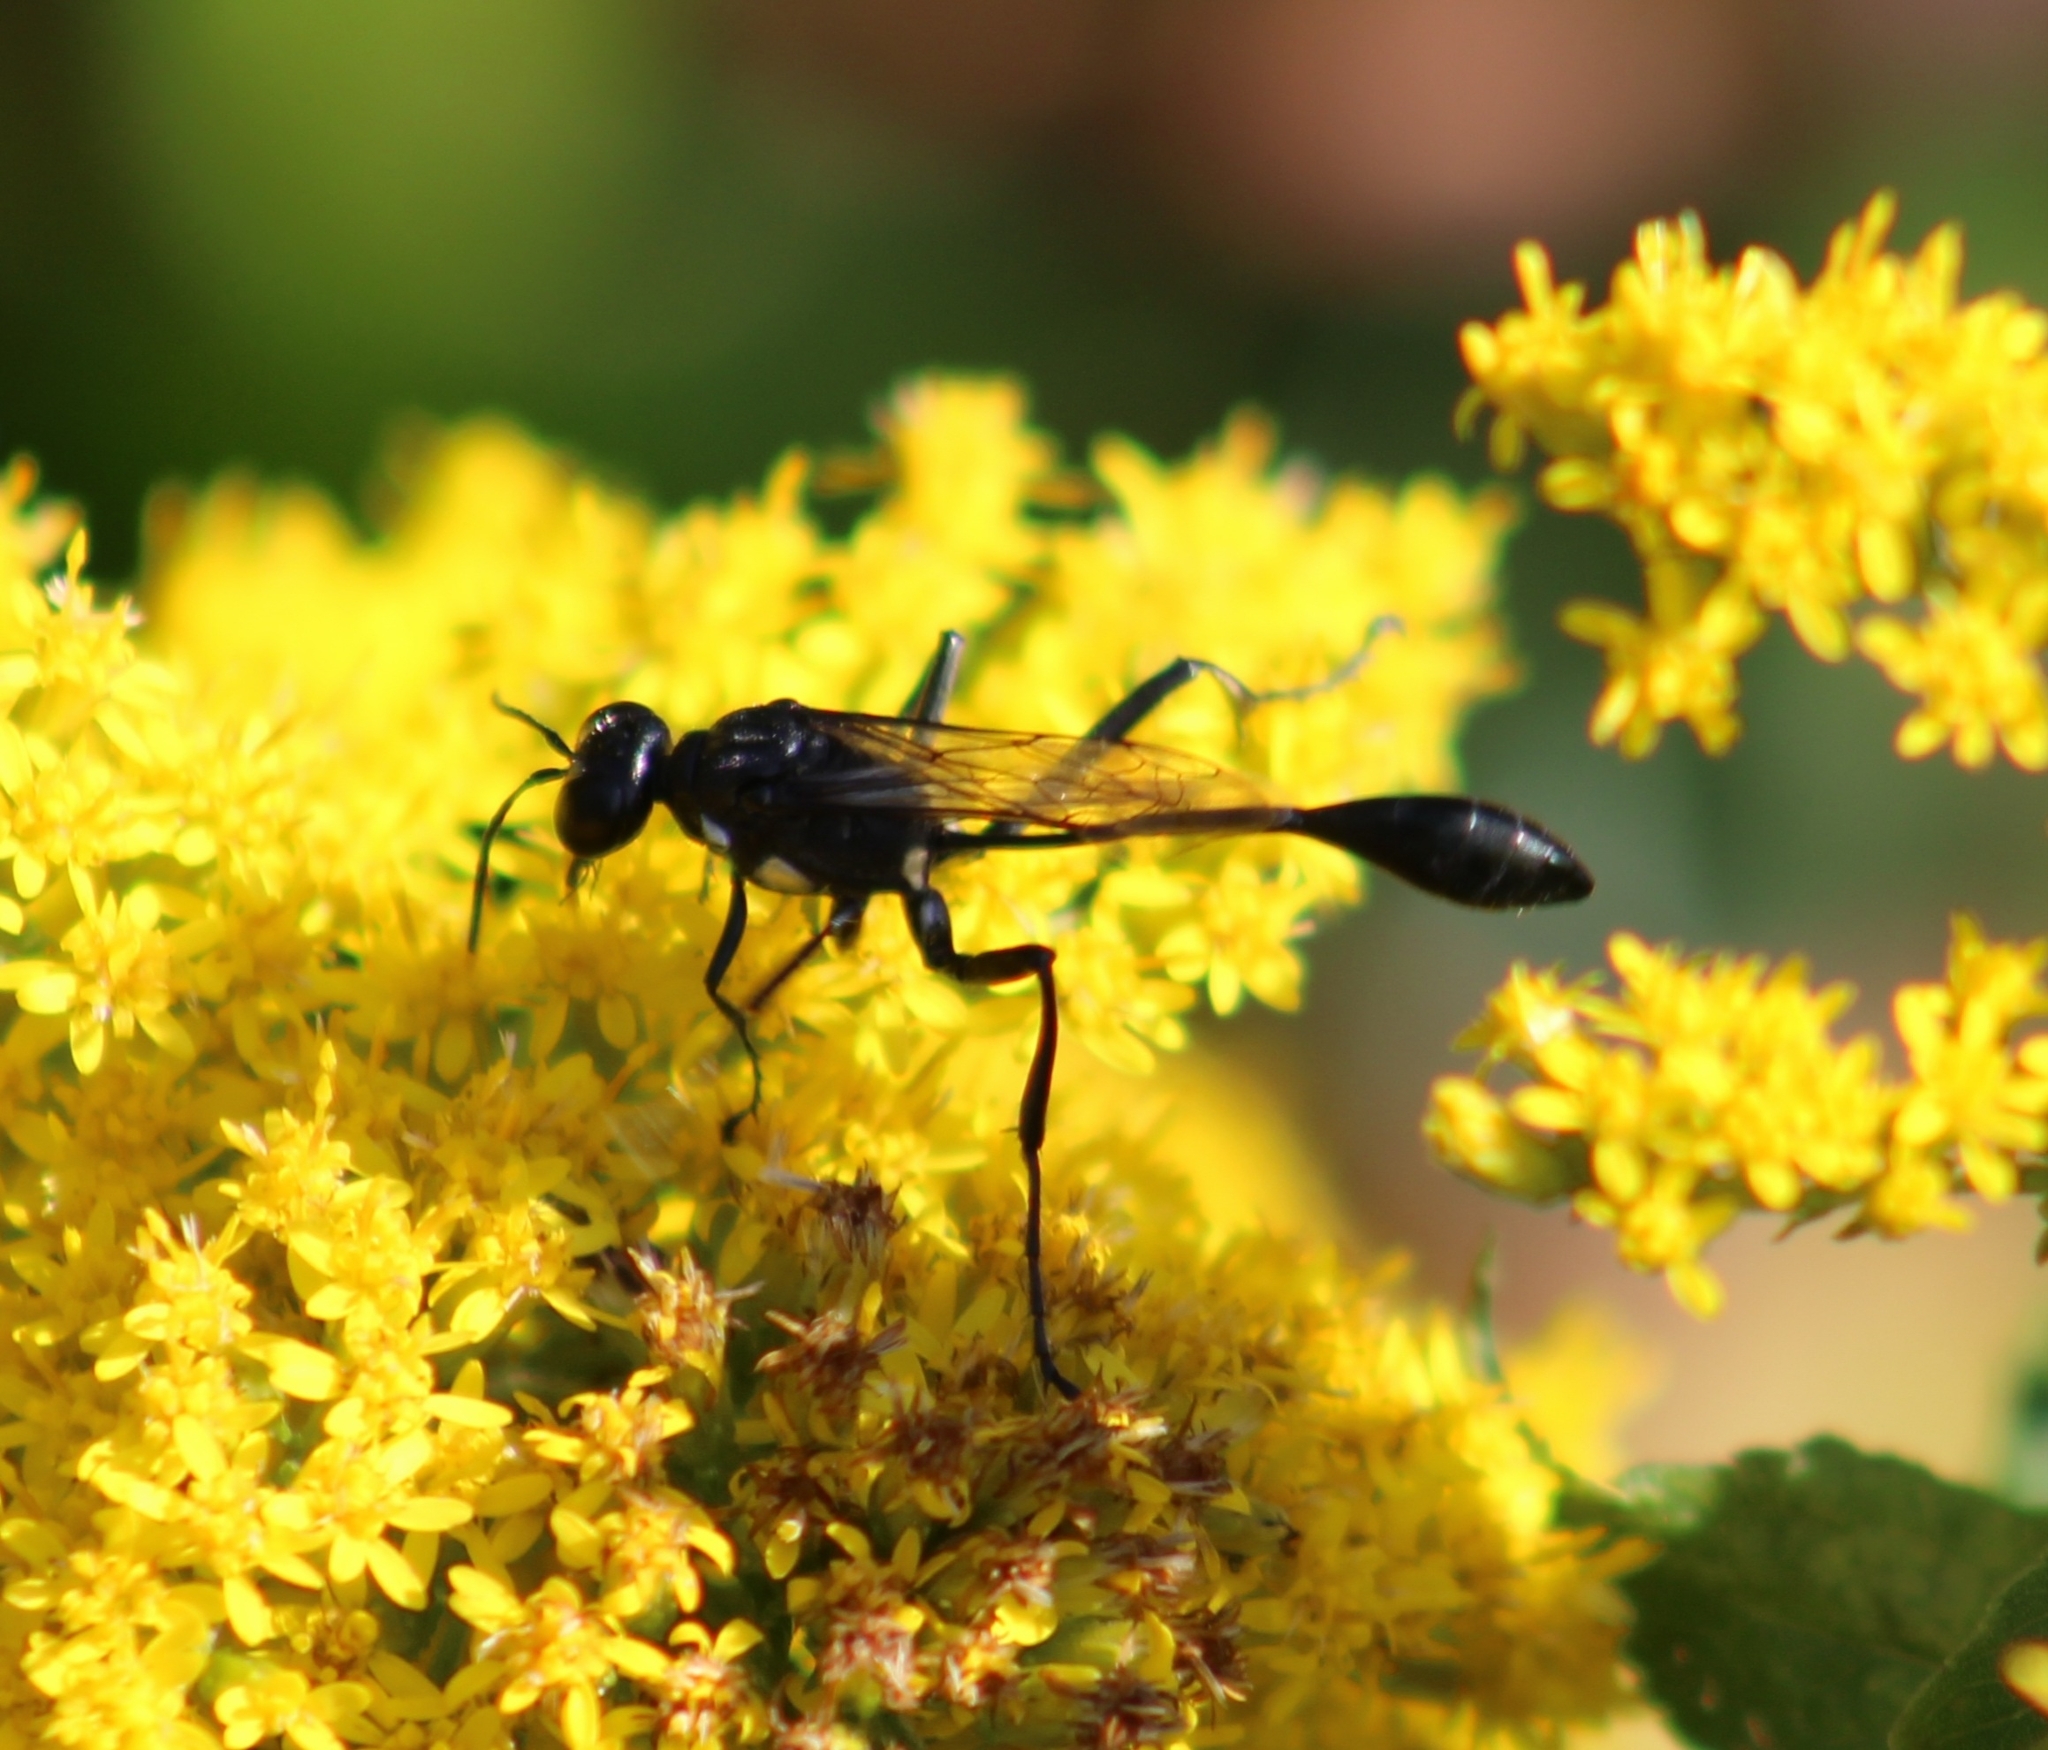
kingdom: Animalia
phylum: Arthropoda
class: Insecta
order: Hymenoptera
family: Sphecidae
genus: Eremnophila
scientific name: Eremnophila aureonotata
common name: Gold-marked thread-waisted wasp
